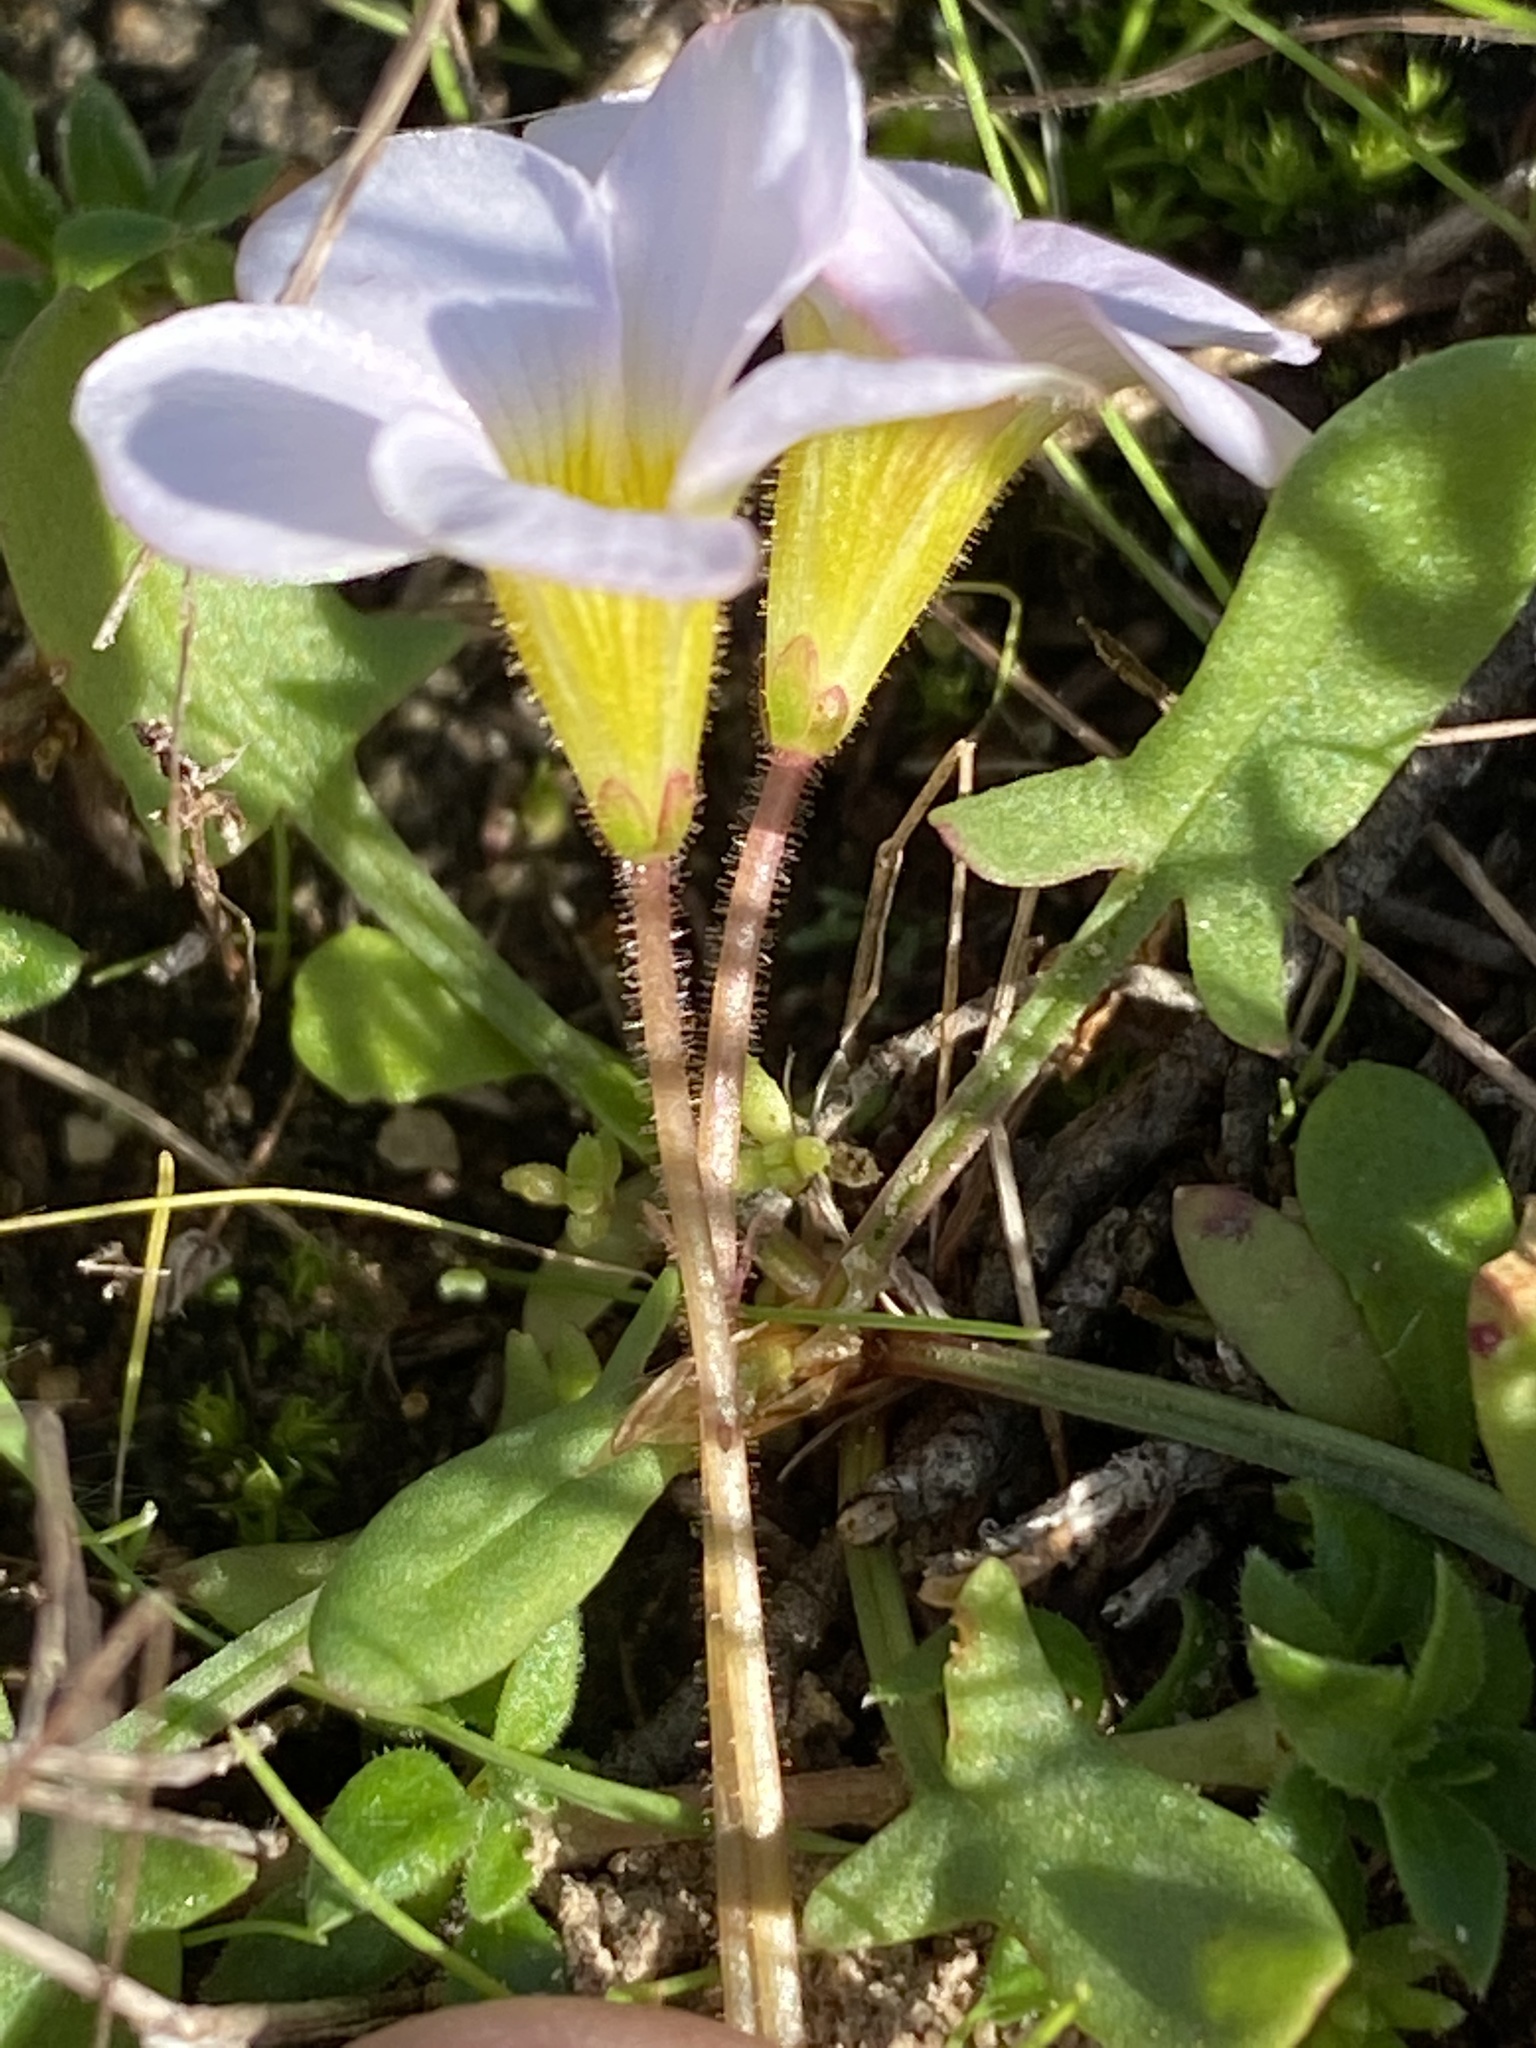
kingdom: Plantae
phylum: Tracheophyta
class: Magnoliopsida
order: Oxalidales
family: Oxalidaceae
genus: Oxalis
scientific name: Oxalis punctata
